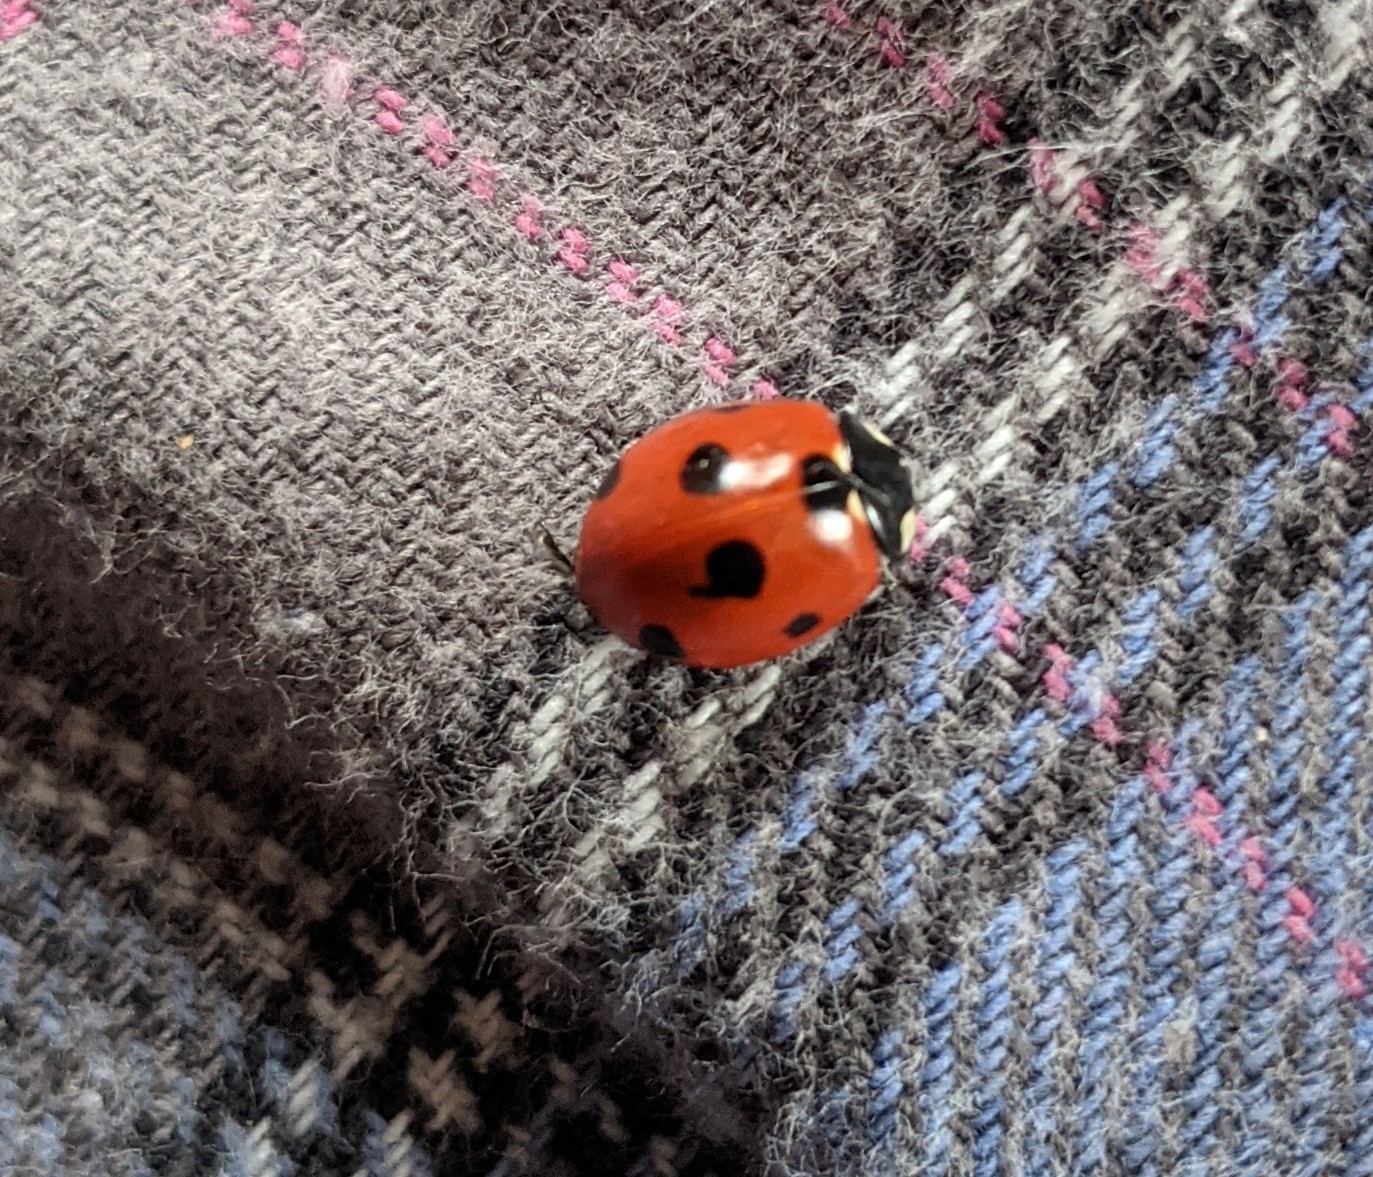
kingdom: Animalia
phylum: Arthropoda
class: Insecta
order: Coleoptera
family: Coccinellidae
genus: Coccinella
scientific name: Coccinella septempunctata
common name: Sevenspotted lady beetle
